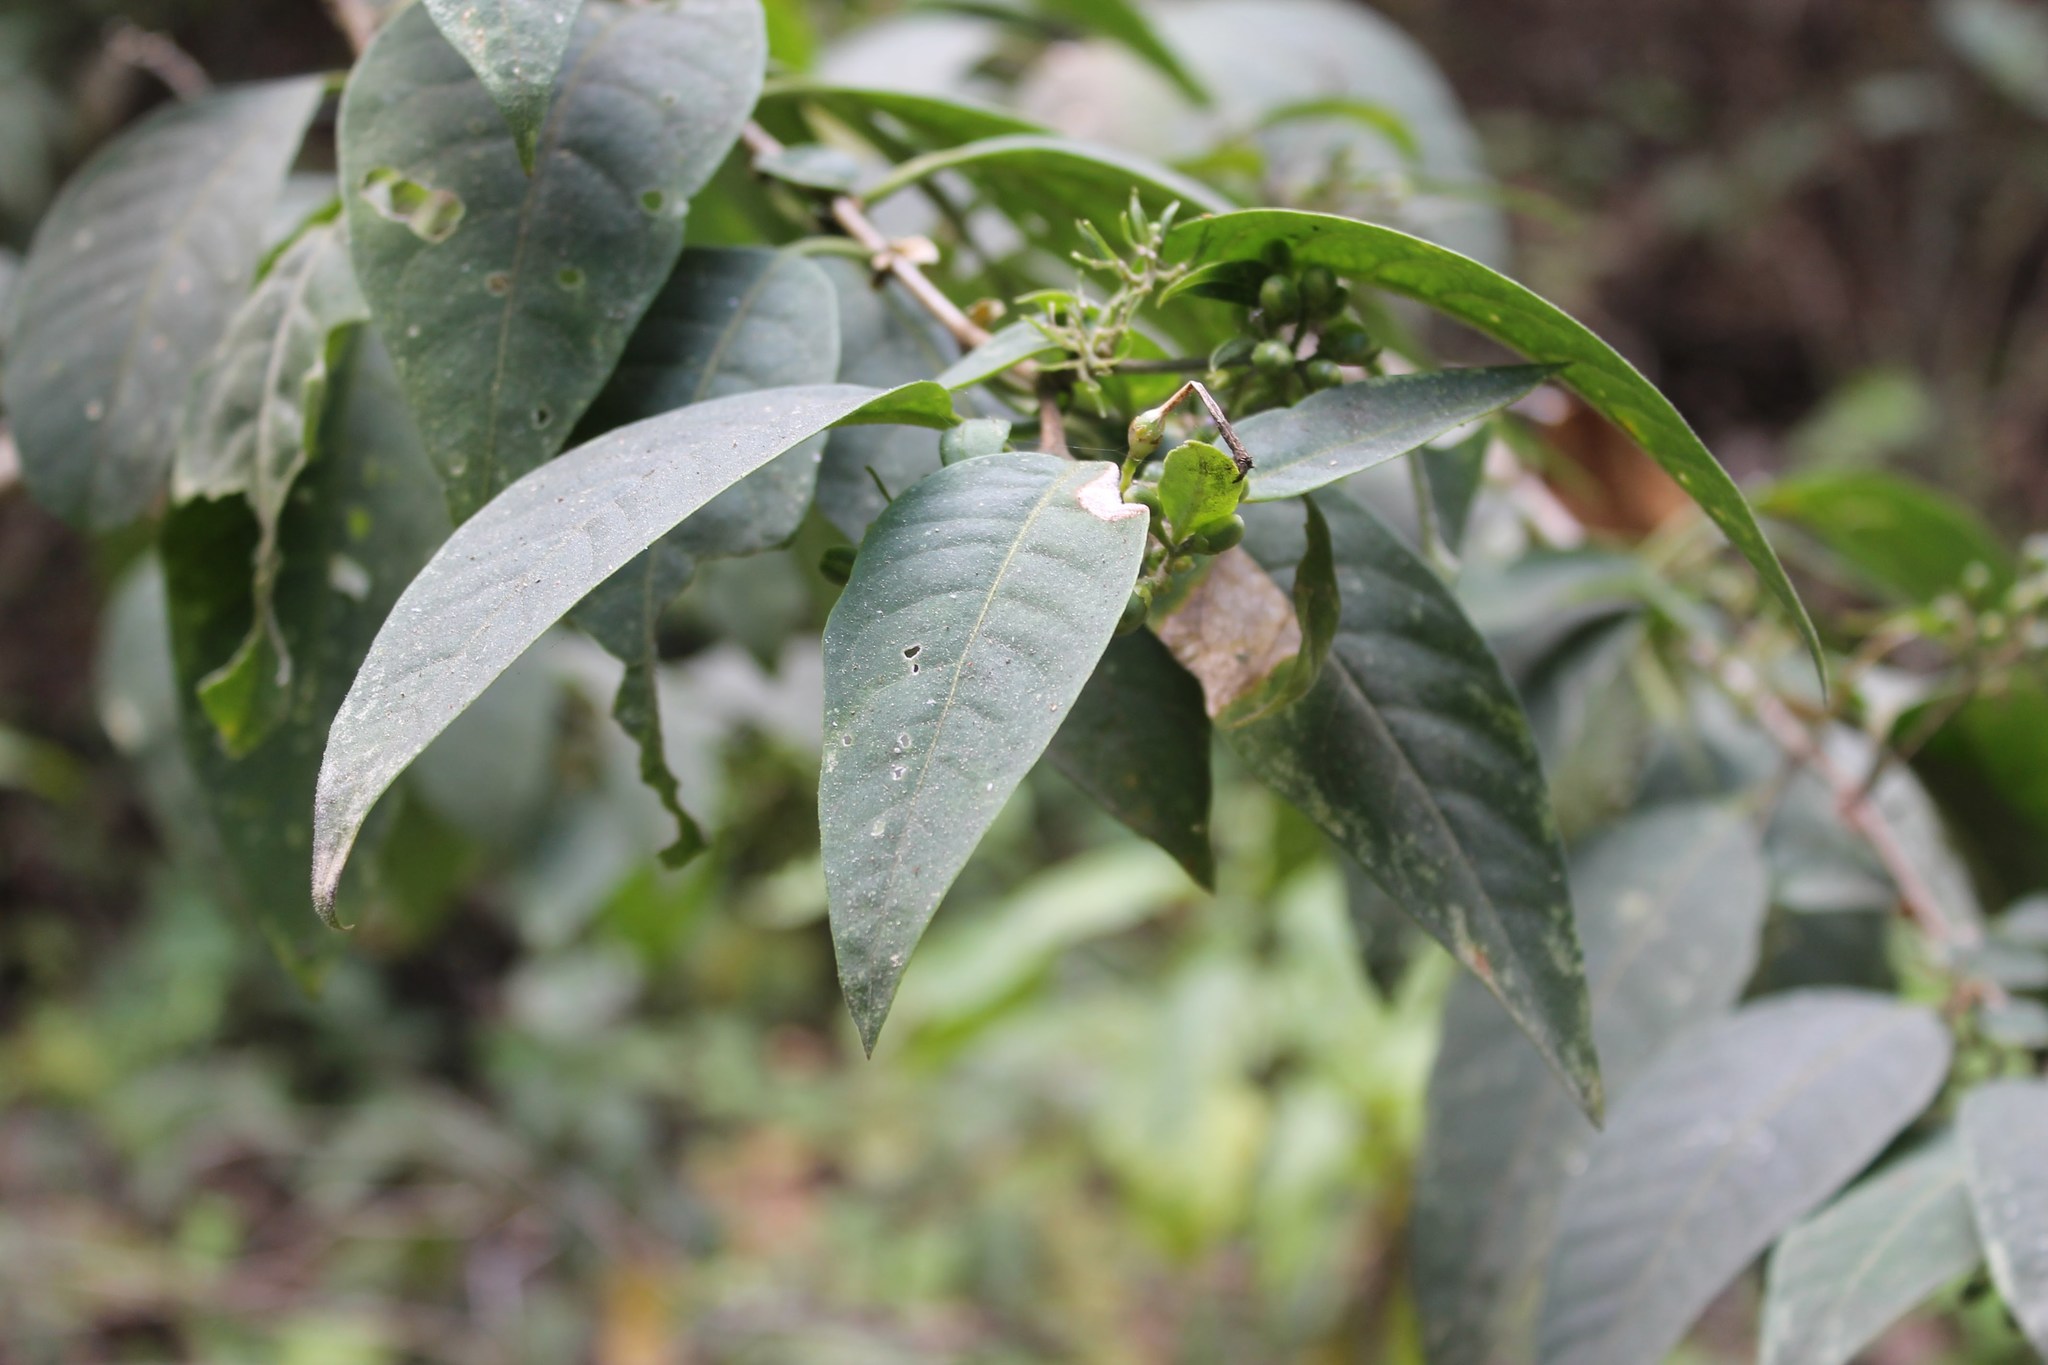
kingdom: Plantae
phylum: Tracheophyta
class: Magnoliopsida
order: Solanales
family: Solanaceae
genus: Cestrum
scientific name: Cestrum aurantiacum
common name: Orange cestrum
